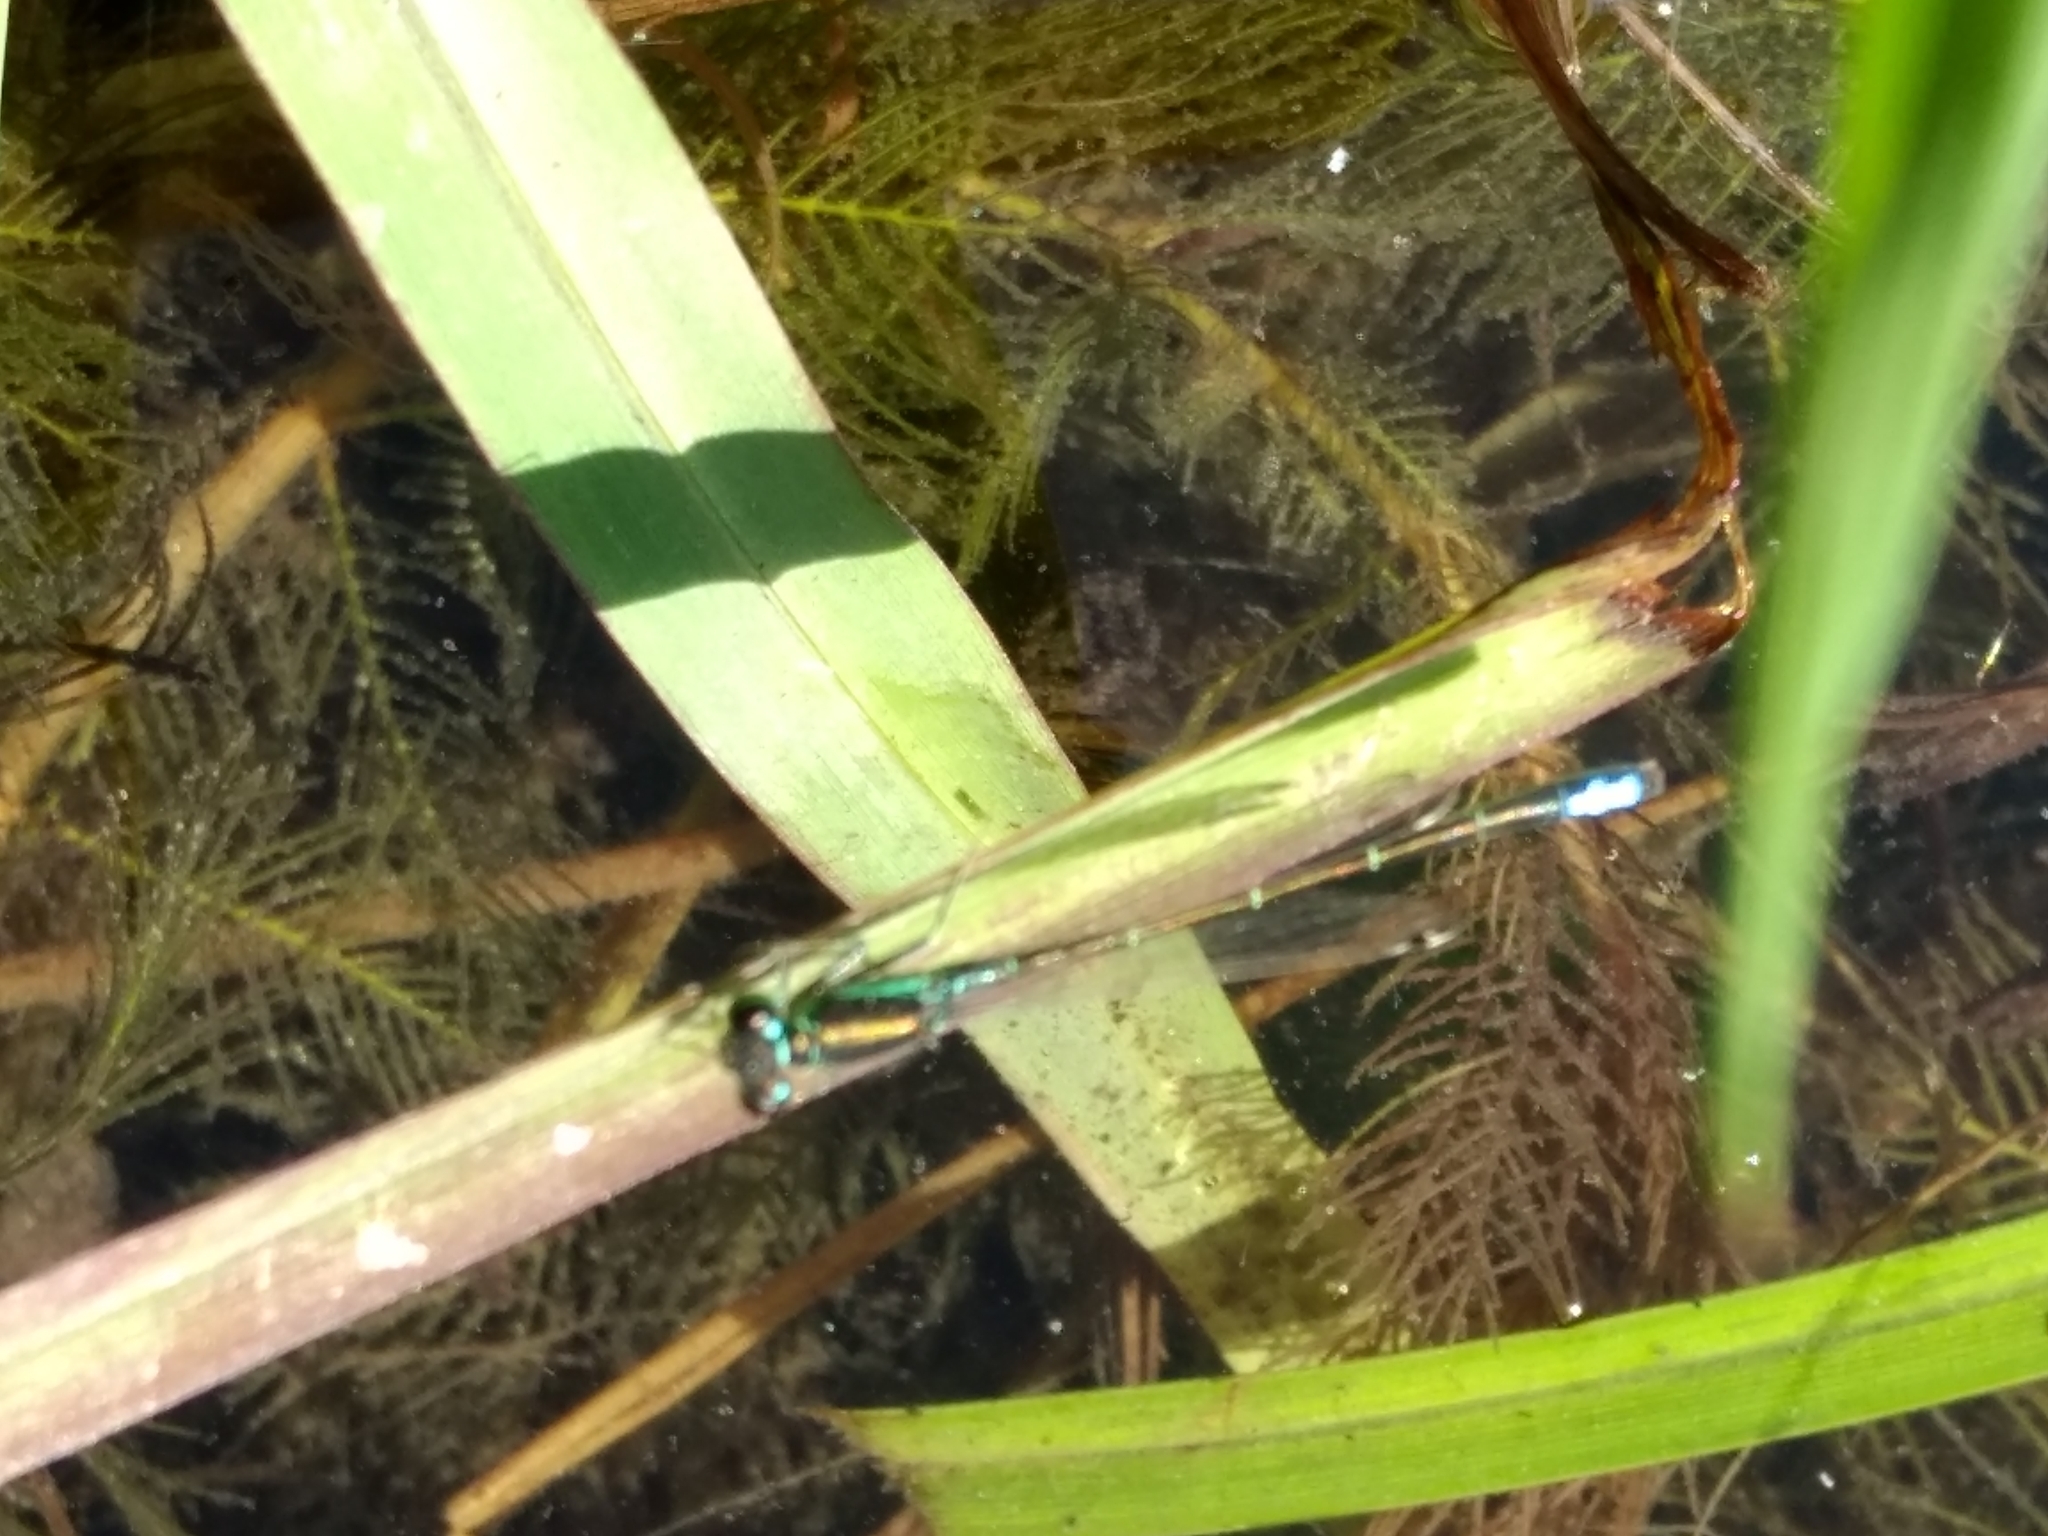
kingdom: Animalia
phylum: Arthropoda
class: Insecta
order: Odonata
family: Coenagrionidae
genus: Ischnura
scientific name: Ischnura denticollis
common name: Black-fronted forktail
